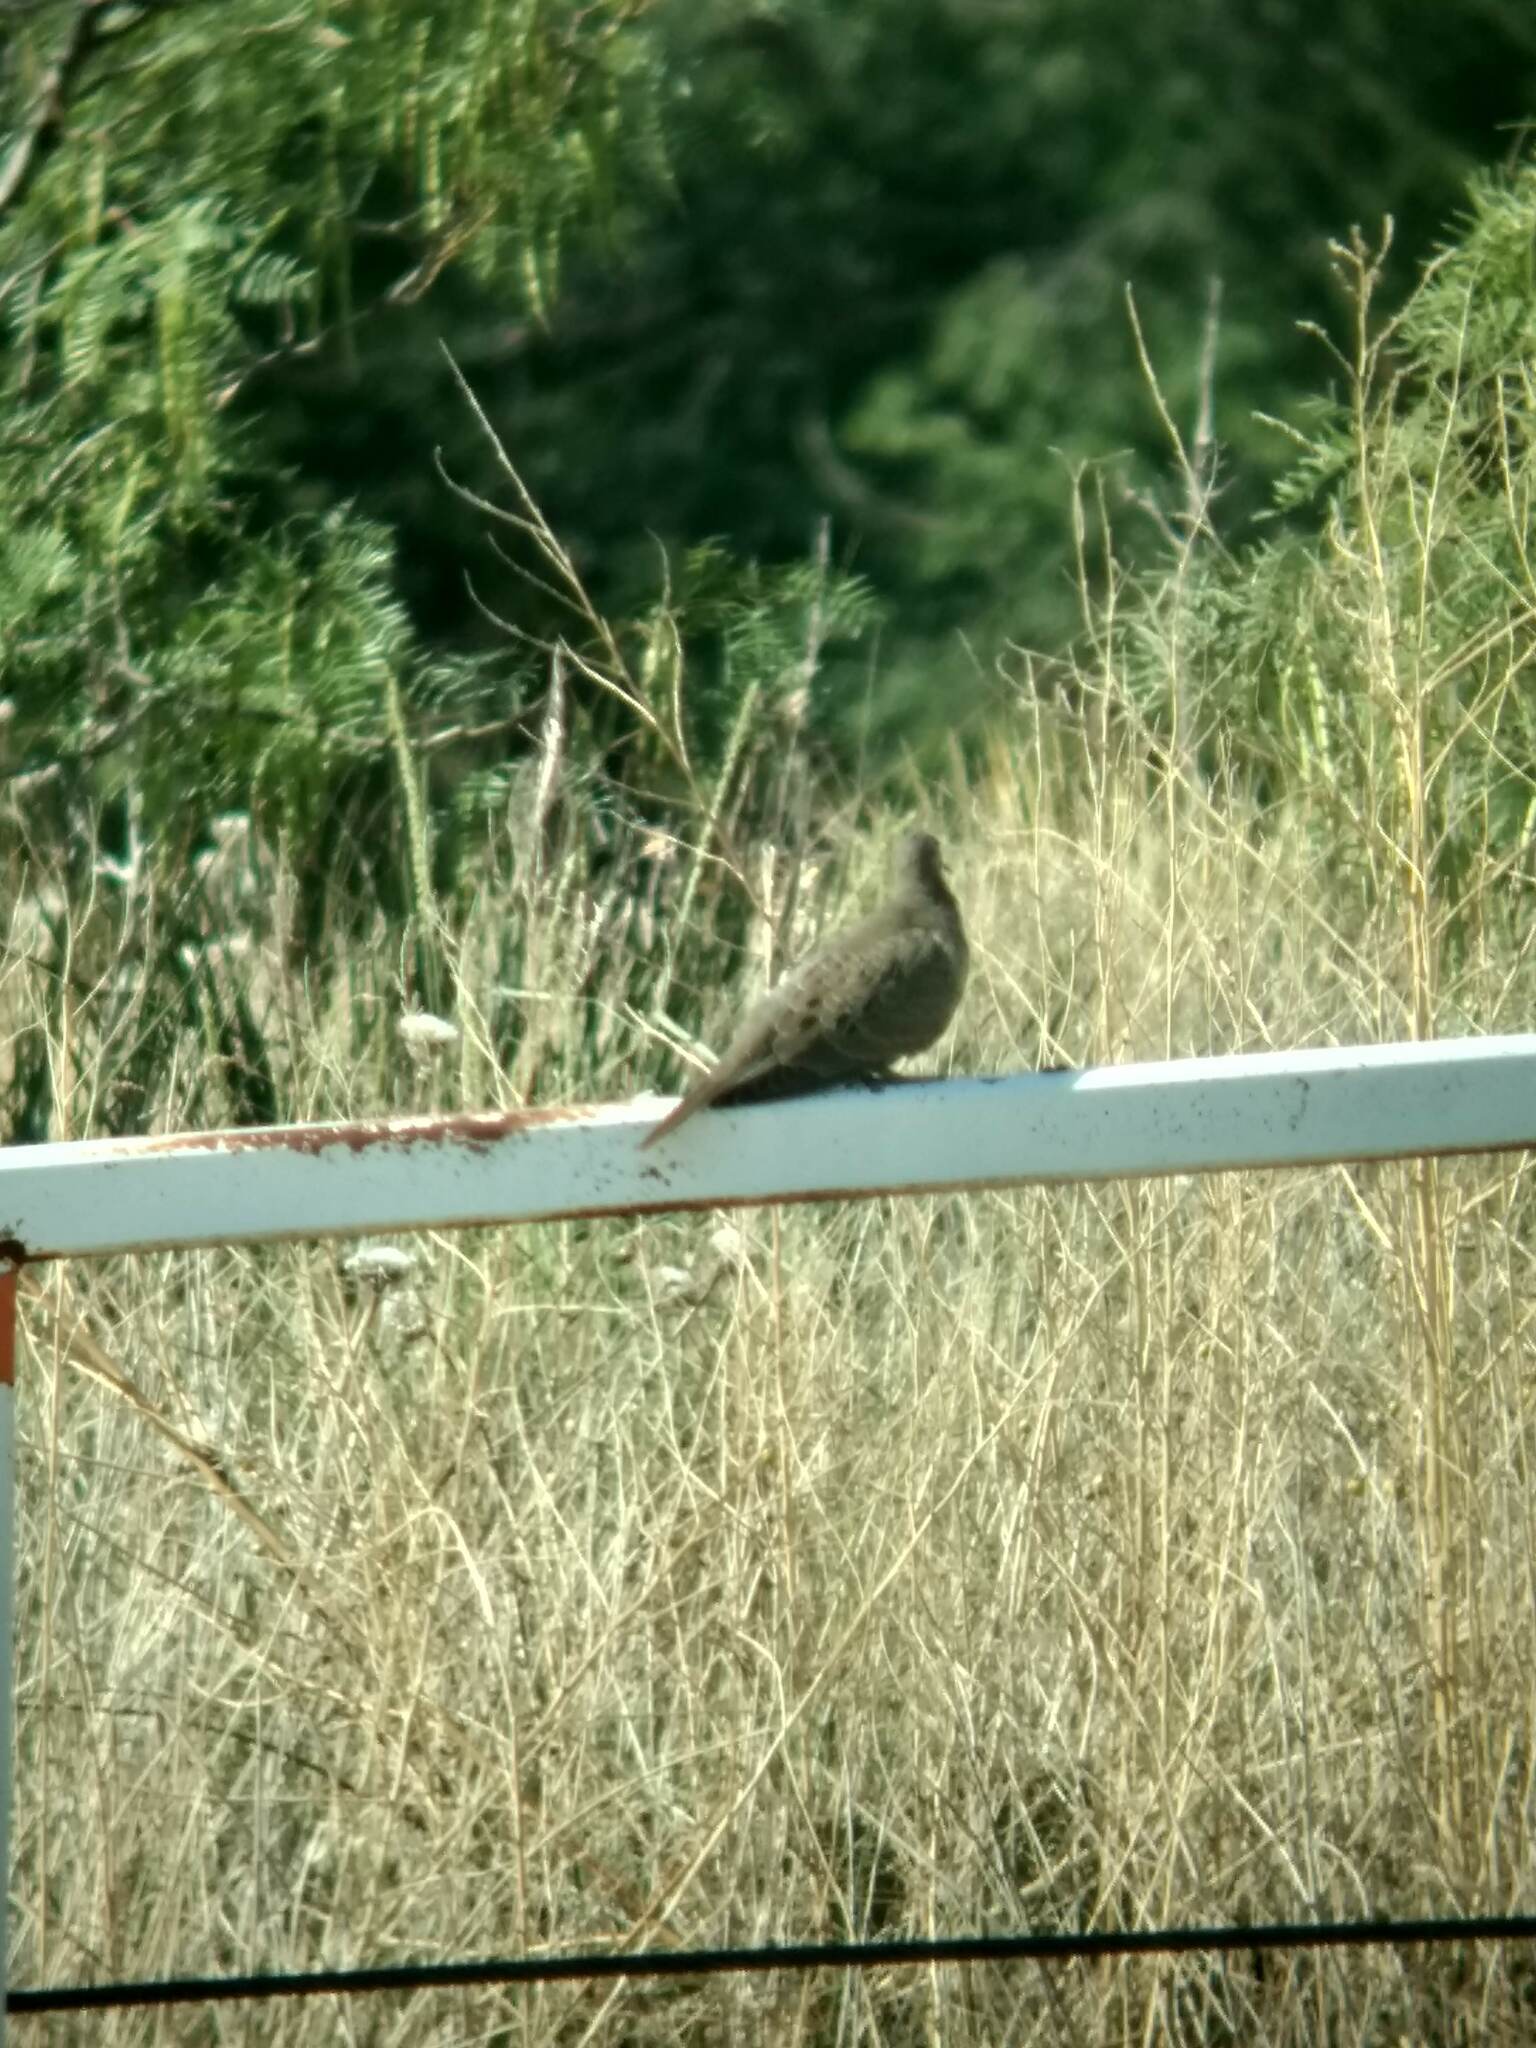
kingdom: Animalia
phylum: Chordata
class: Aves
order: Columbiformes
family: Columbidae
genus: Zenaida
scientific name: Zenaida macroura
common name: Mourning dove
